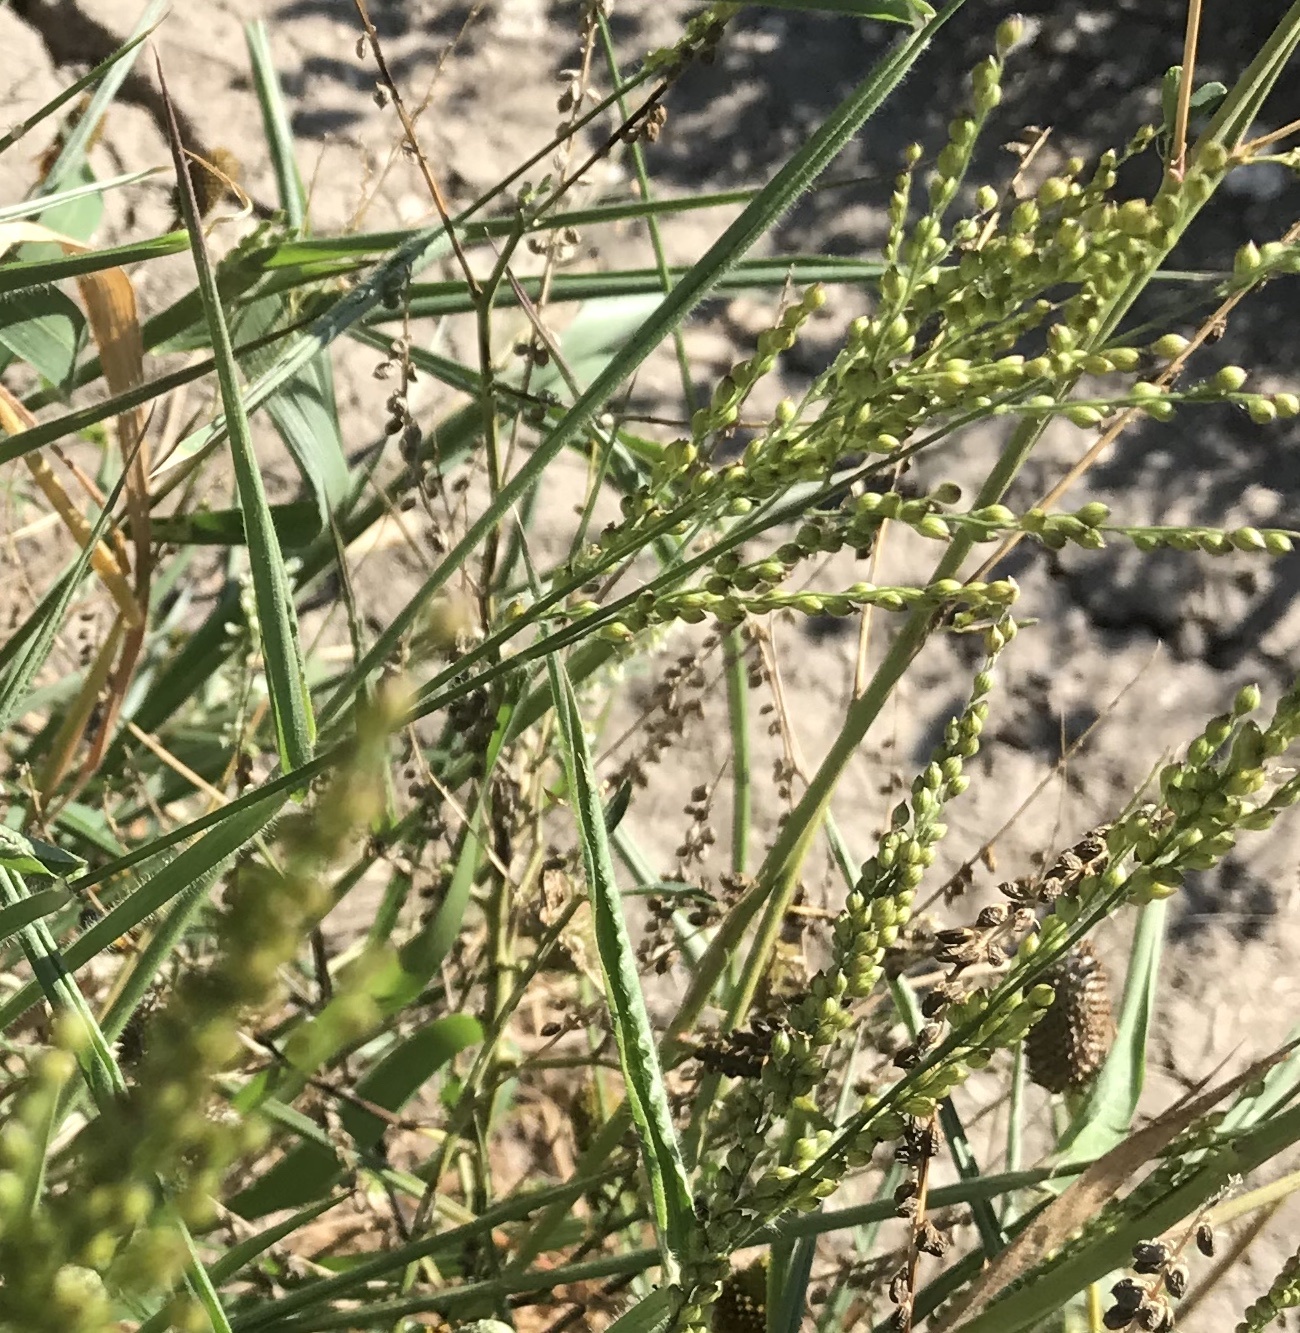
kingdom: Plantae
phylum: Tracheophyta
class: Liliopsida
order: Poales
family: Poaceae
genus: Urochloa
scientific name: Urochloa fusca
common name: Browntop signal grass
